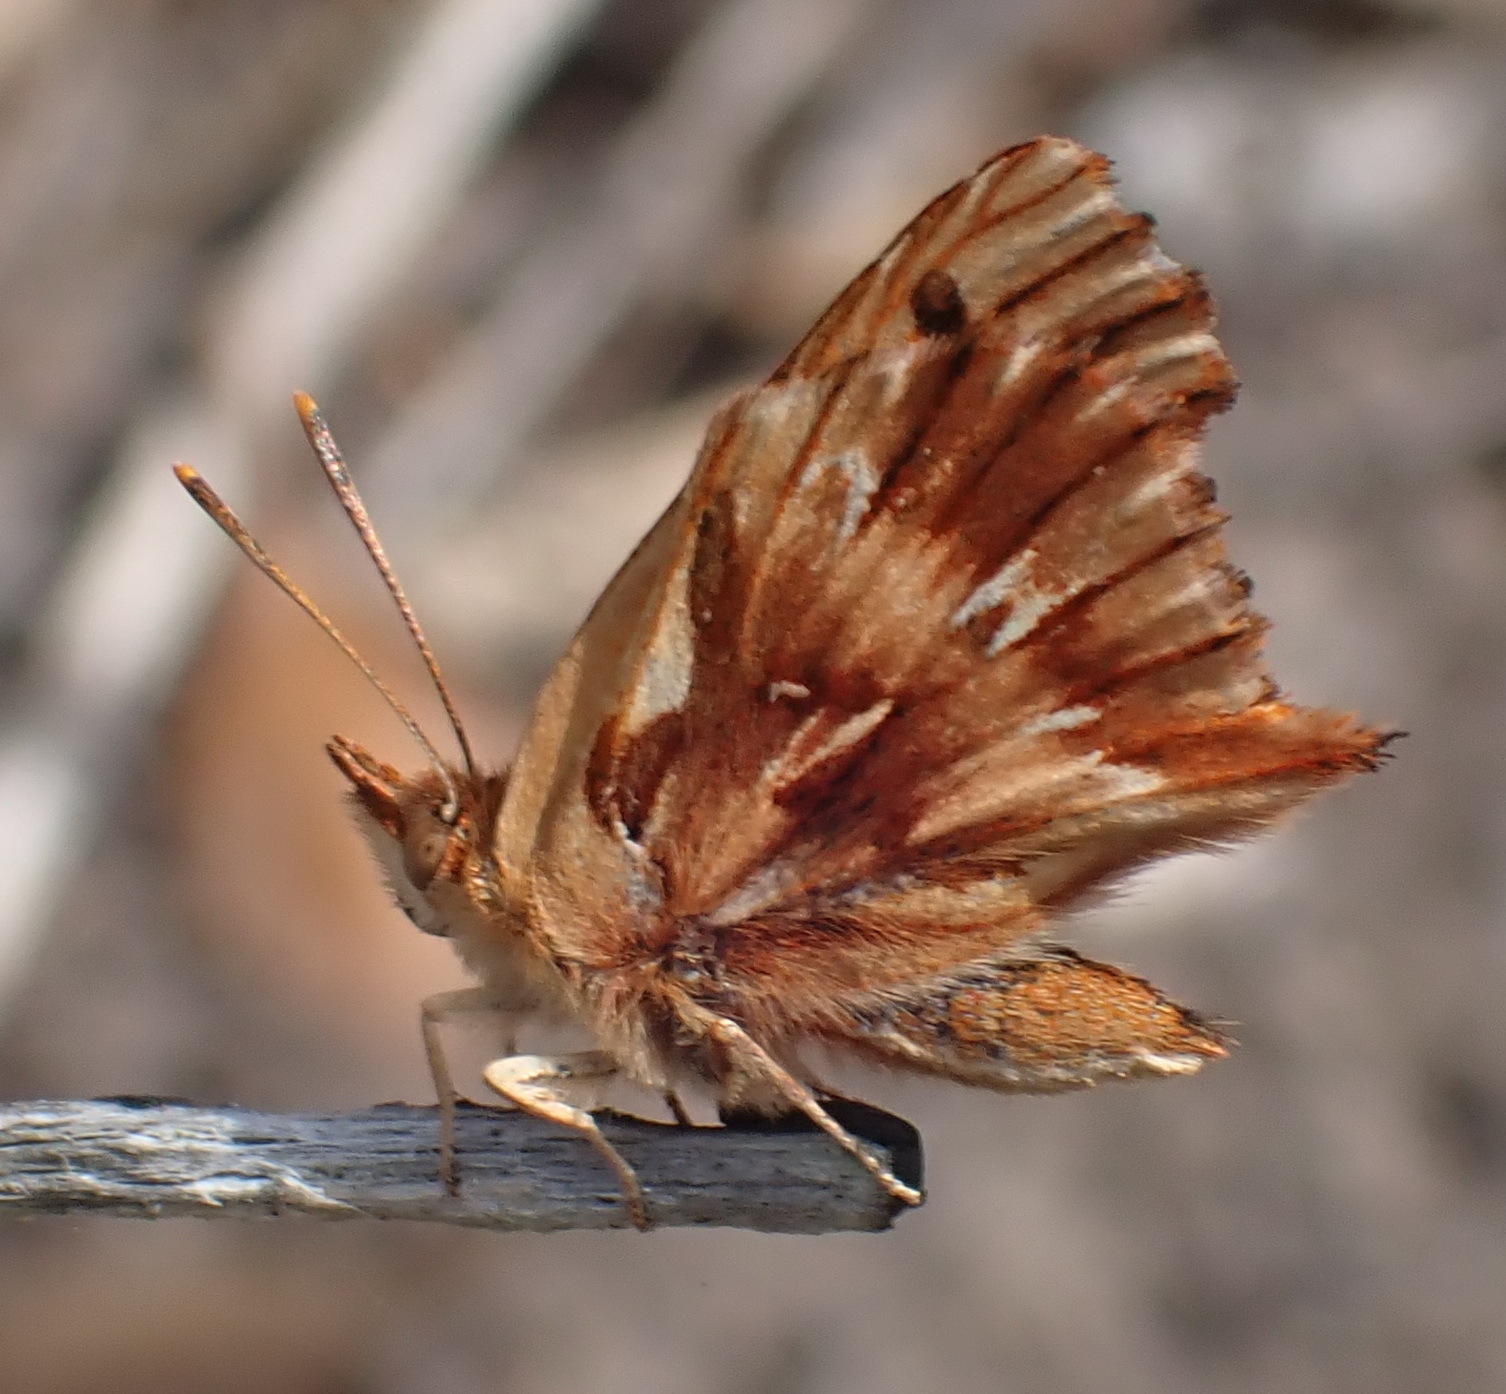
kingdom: Animalia
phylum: Arthropoda
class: Insecta
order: Lepidoptera
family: Lycaenidae
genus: Chrysoritis
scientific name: Chrysoritis
